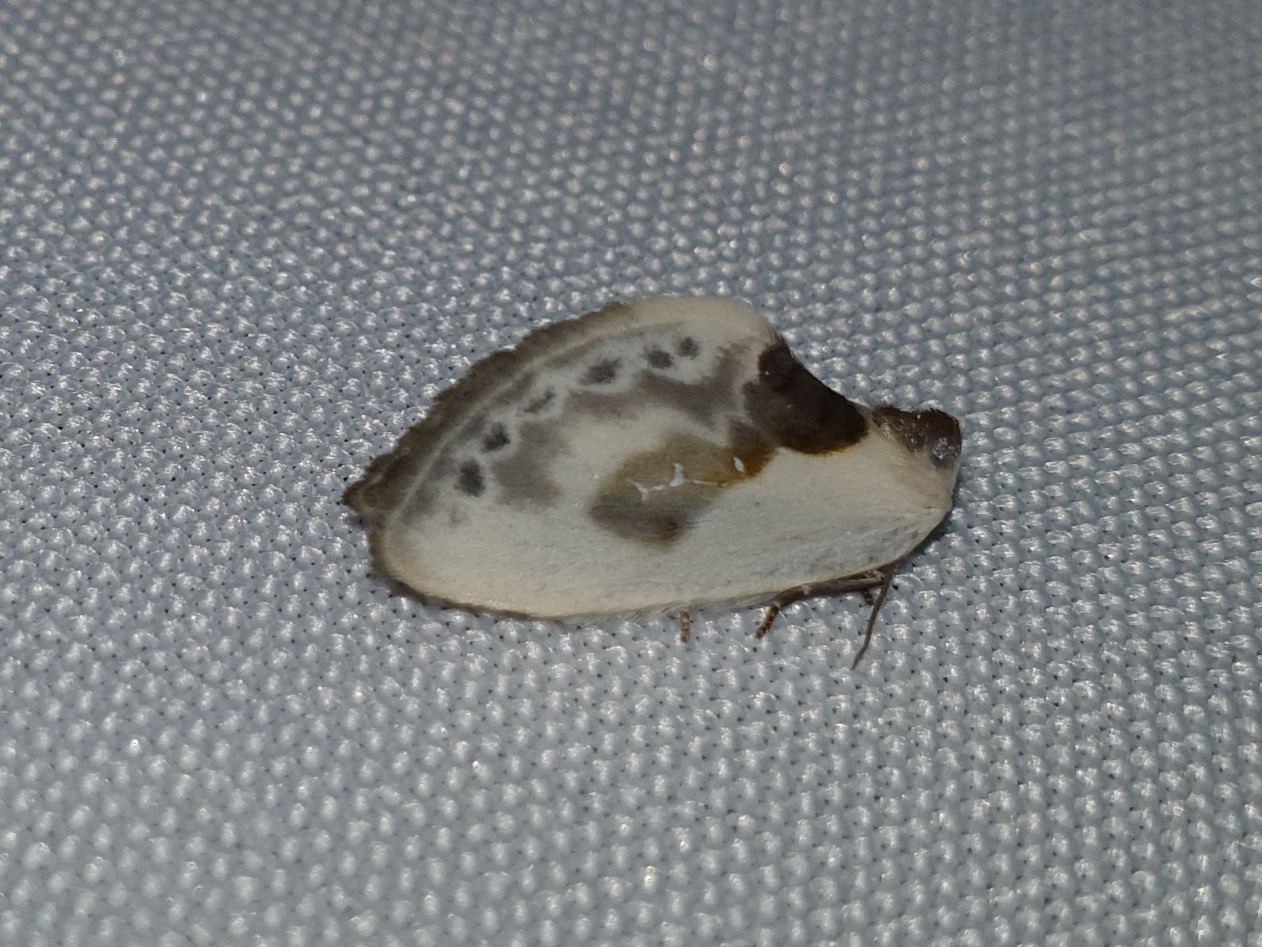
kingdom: Animalia
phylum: Arthropoda
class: Insecta
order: Lepidoptera
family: Drepanidae
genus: Cilix
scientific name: Cilix glaucata
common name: Chinese character
